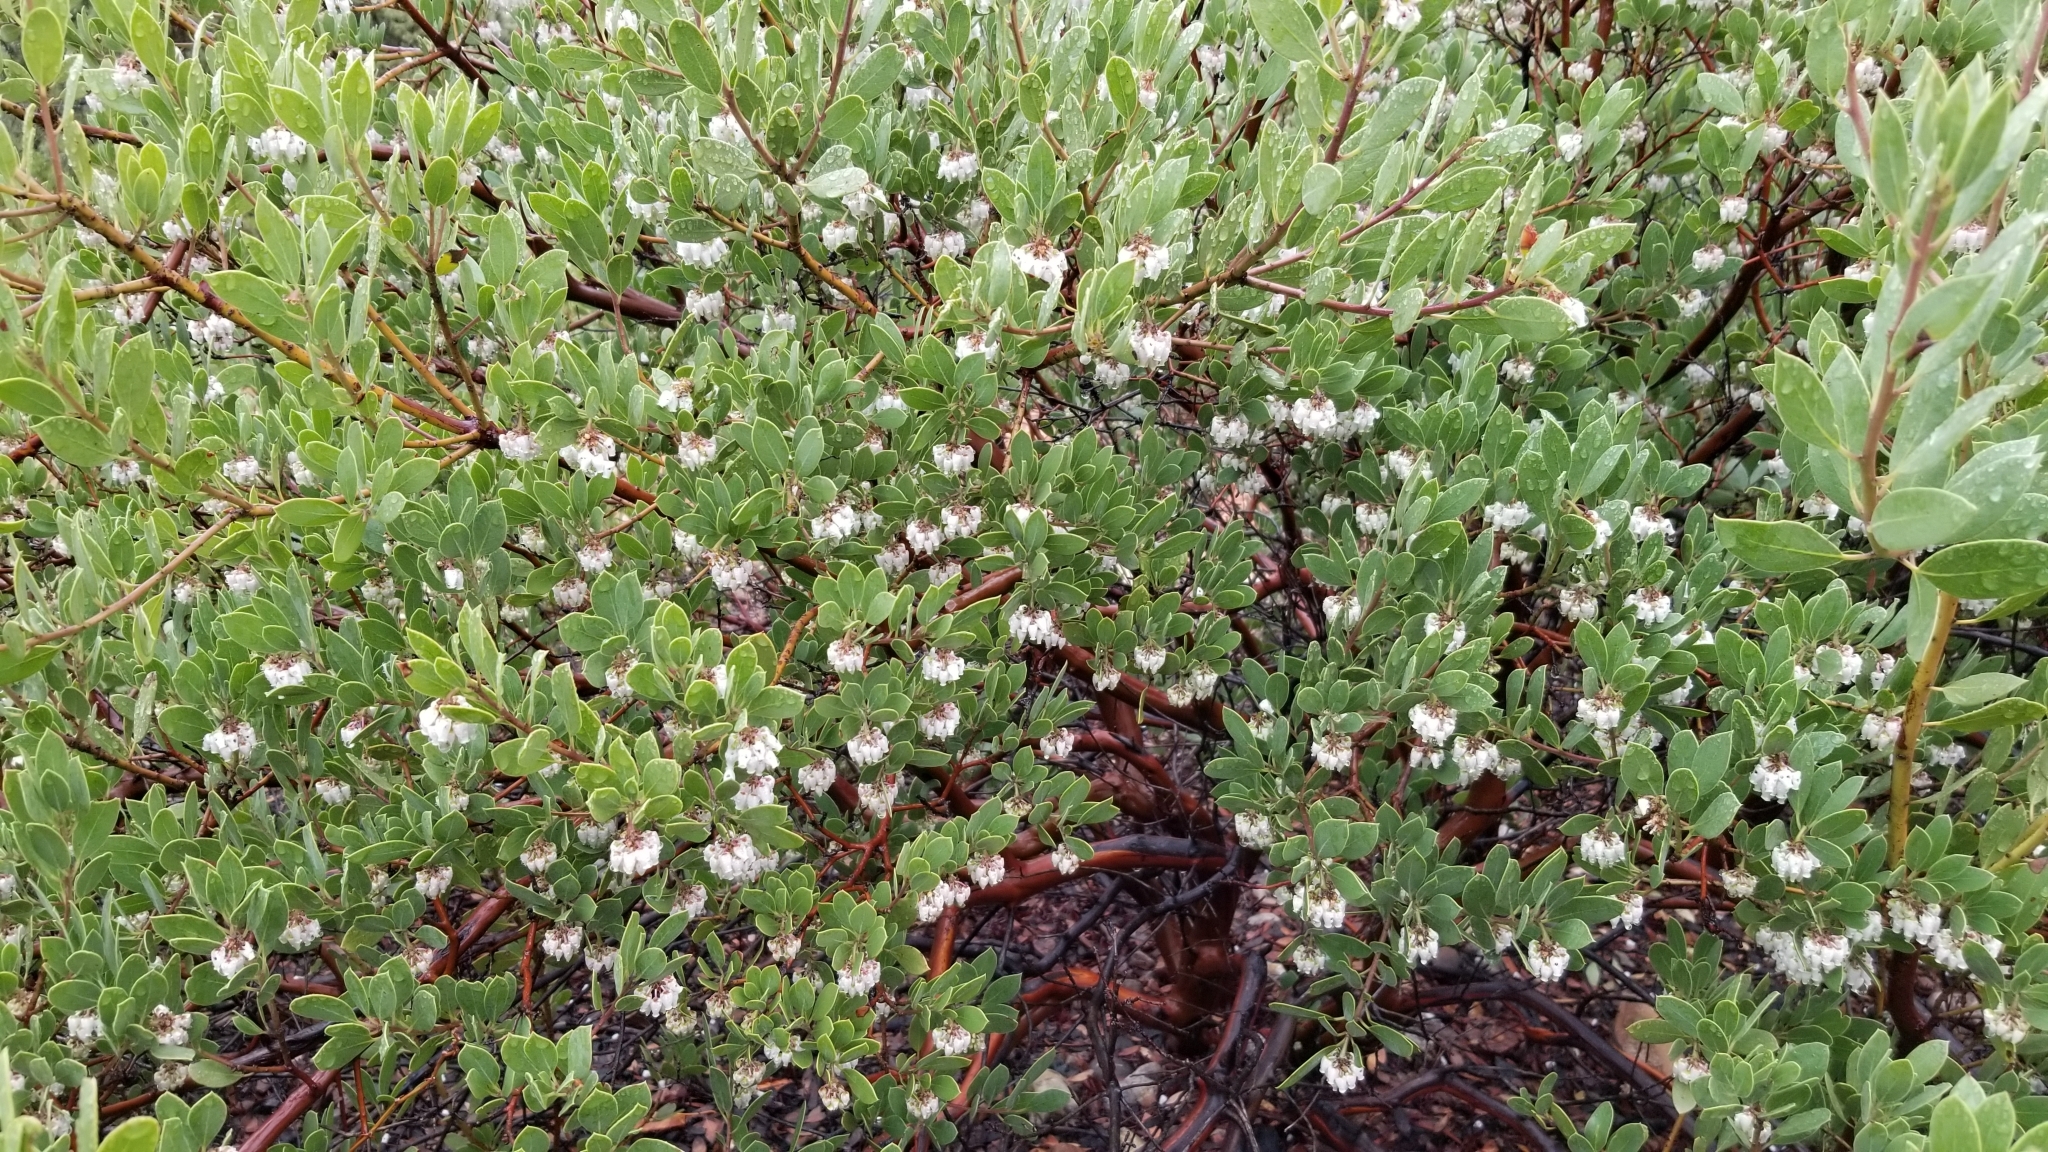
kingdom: Plantae
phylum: Tracheophyta
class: Magnoliopsida
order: Ericales
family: Ericaceae
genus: Arctostaphylos
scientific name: Arctostaphylos pungens
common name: Mexican manzanita
